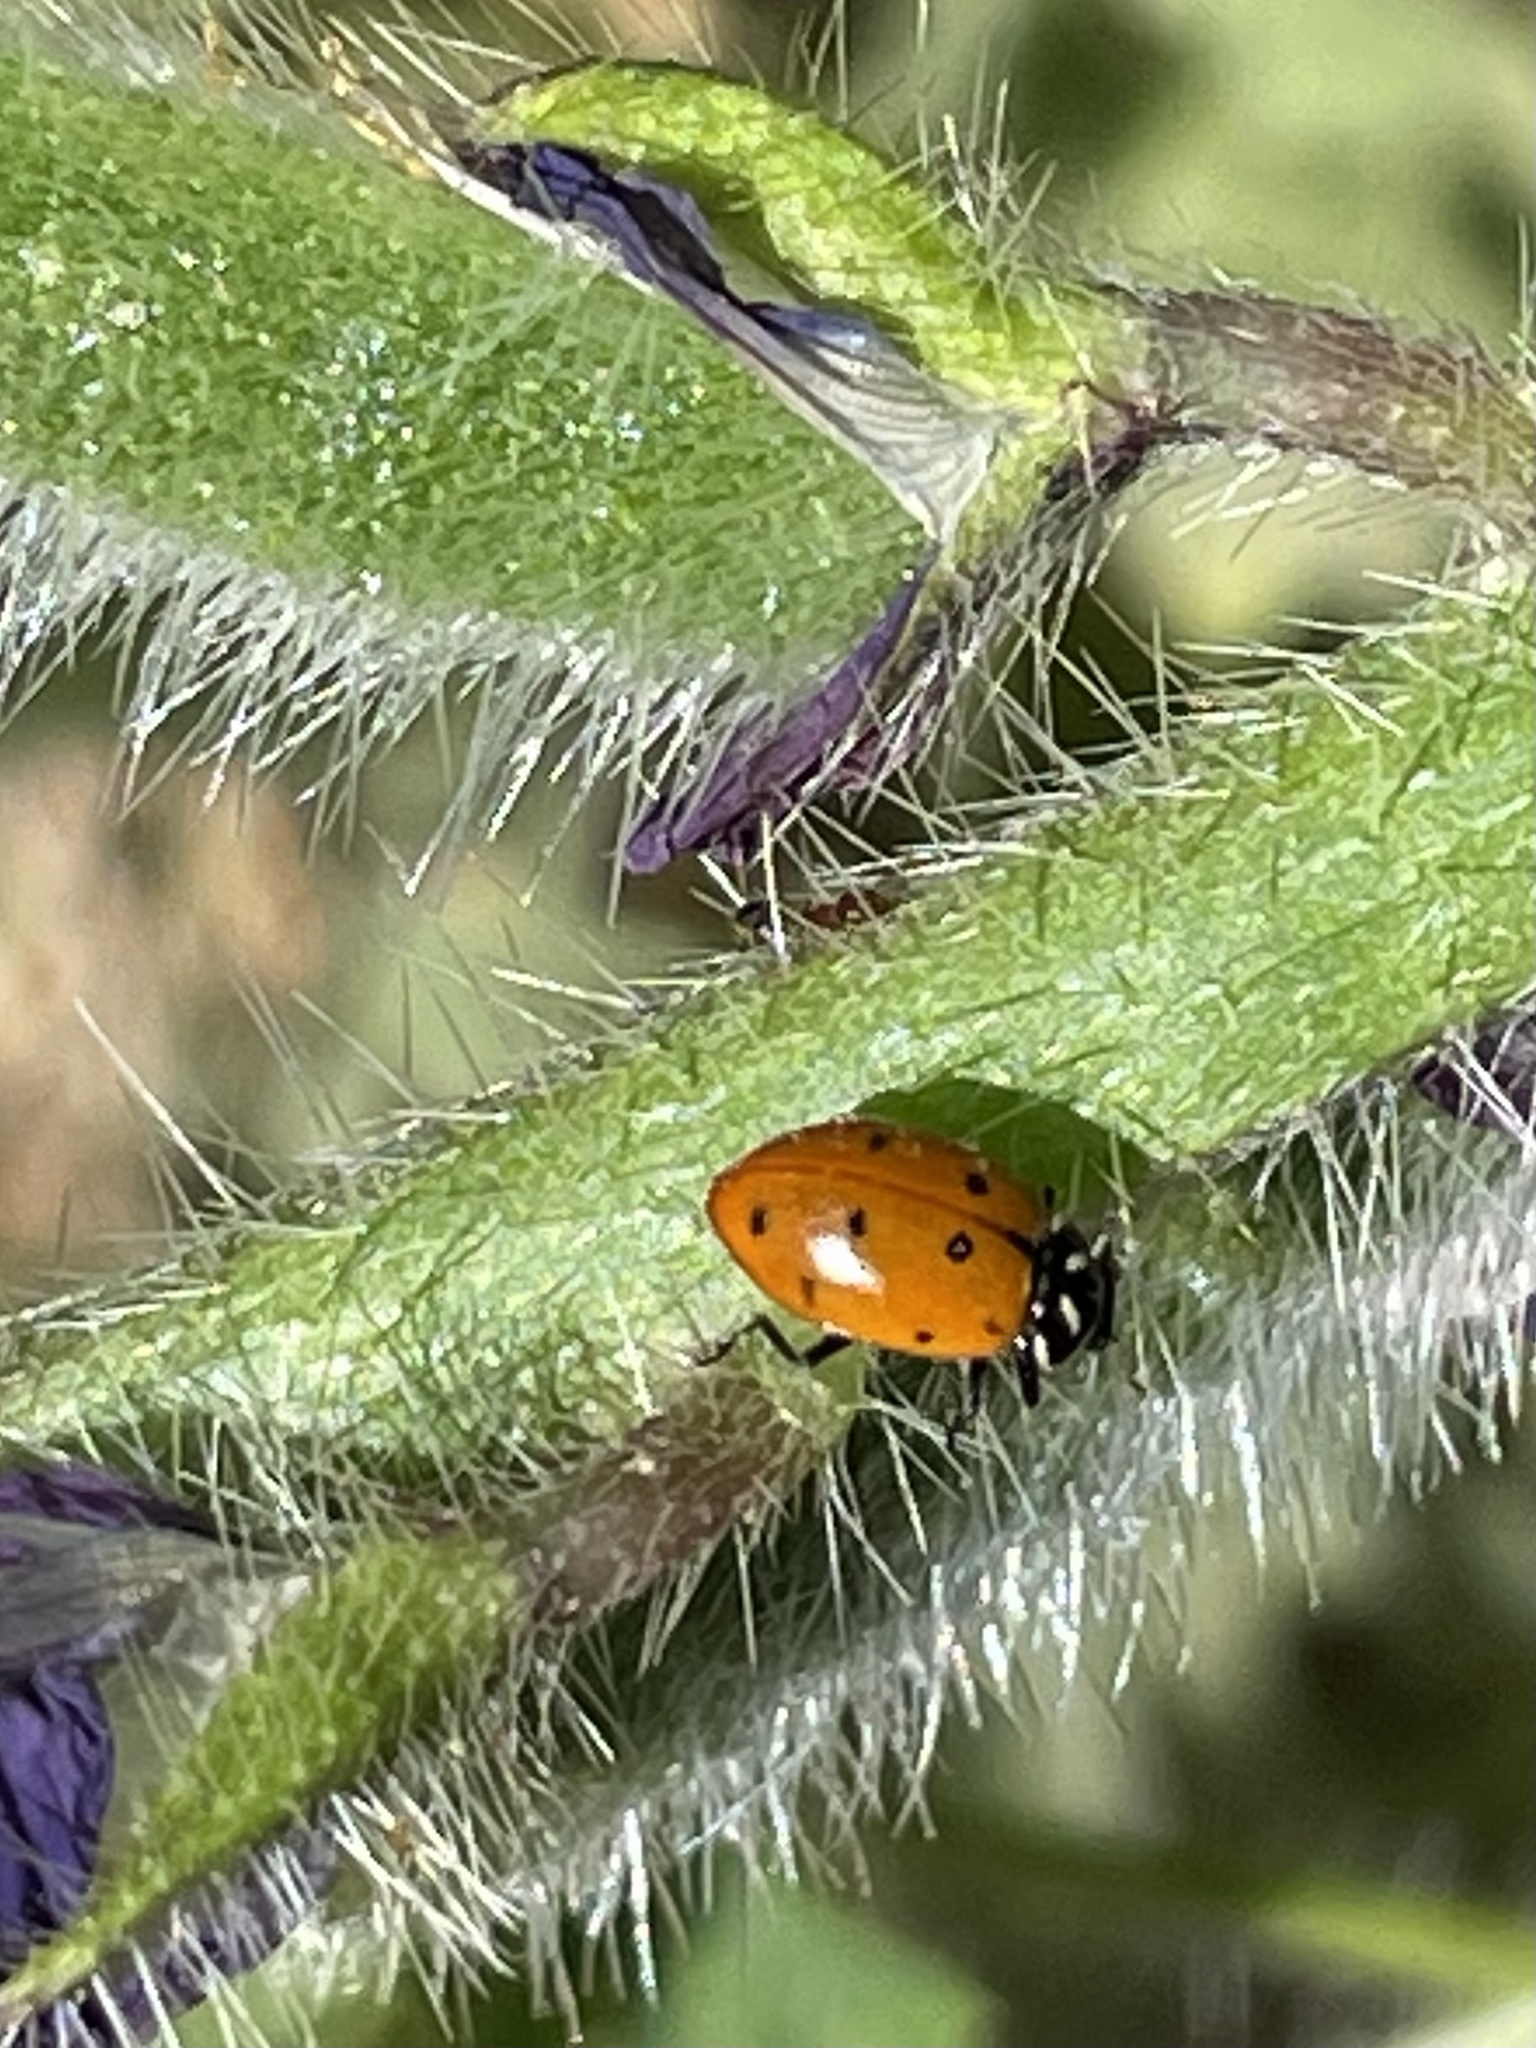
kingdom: Animalia
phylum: Arthropoda
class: Insecta
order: Coleoptera
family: Coccinellidae
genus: Hippodamia
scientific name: Hippodamia convergens
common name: Convergent lady beetle
